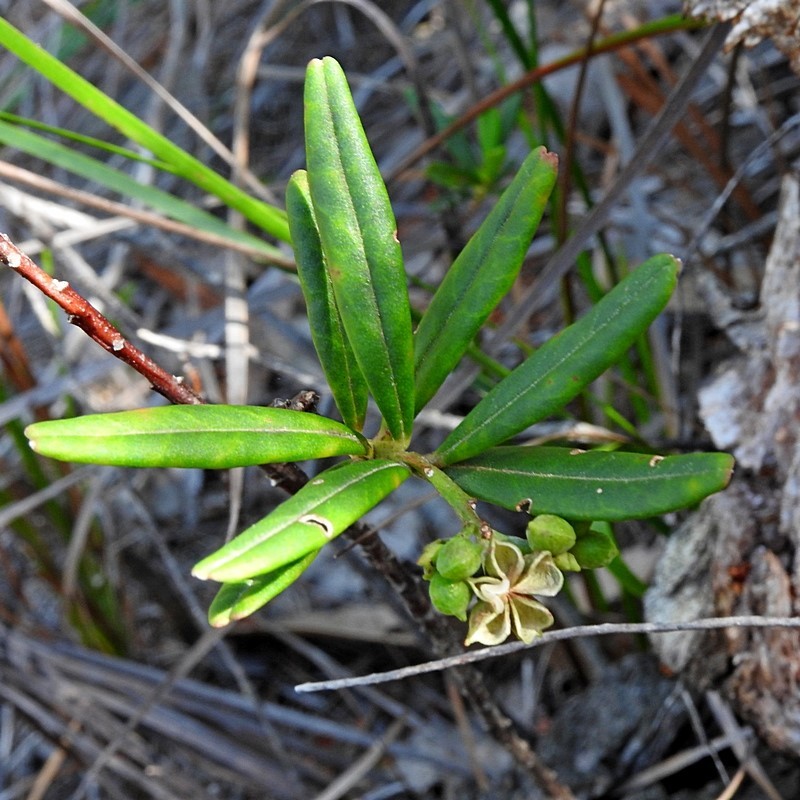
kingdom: Plantae
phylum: Tracheophyta
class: Magnoliopsida
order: Sapindales
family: Rutaceae
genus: Leionema
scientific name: Leionema ralstonii
